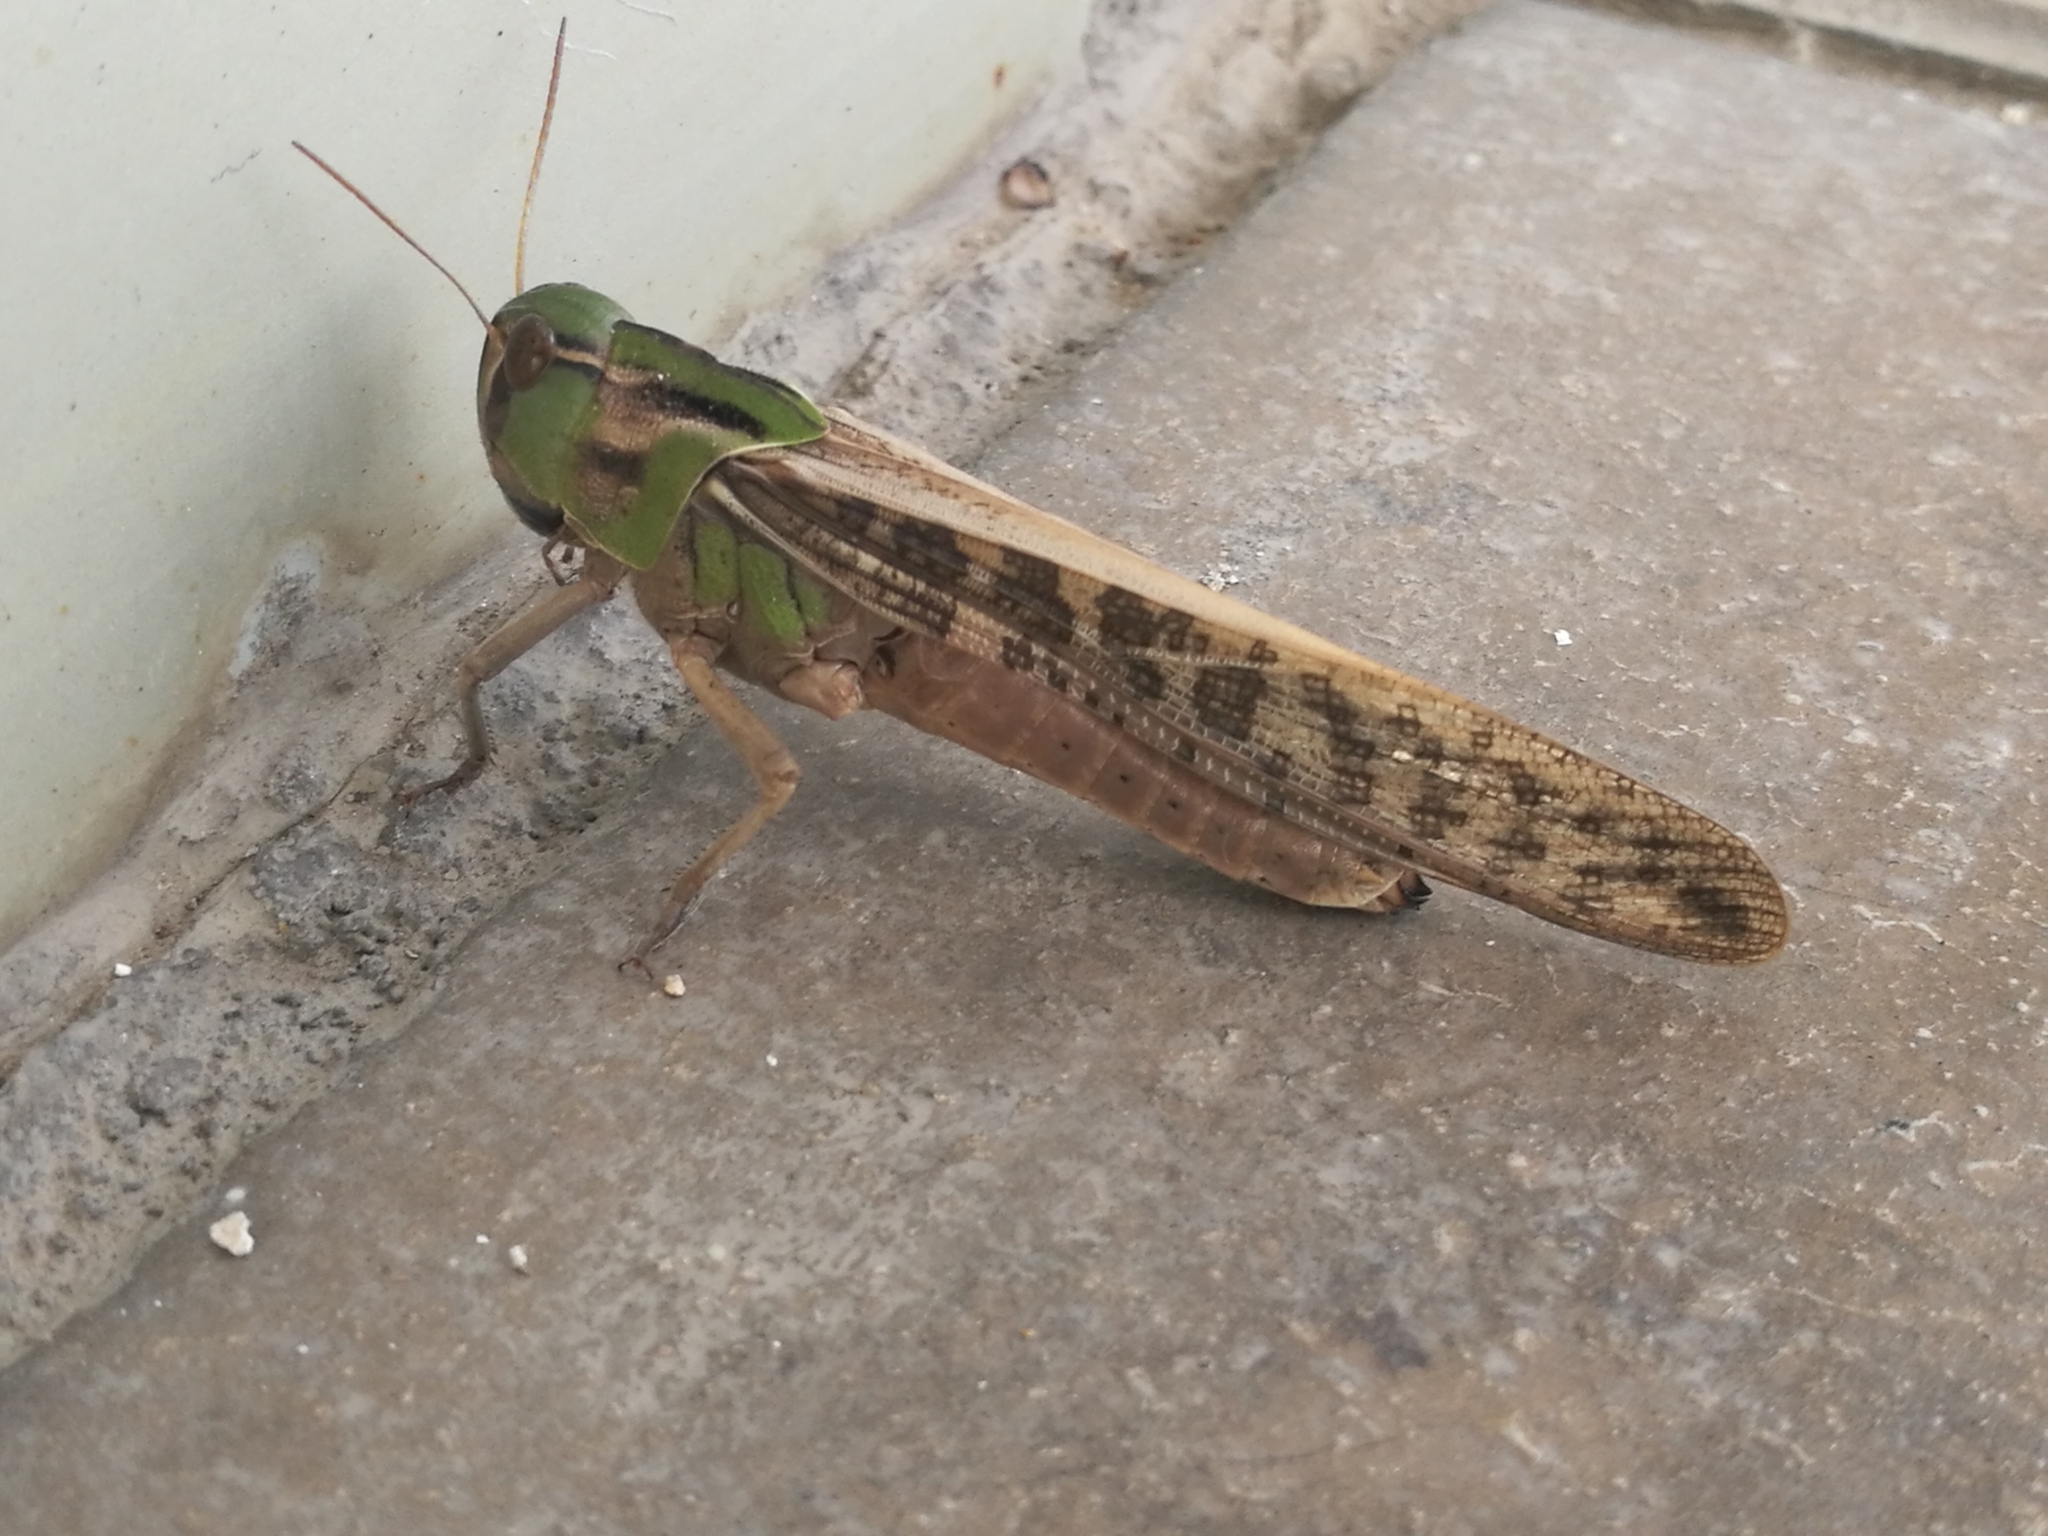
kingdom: Animalia
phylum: Arthropoda
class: Insecta
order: Orthoptera
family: Acrididae
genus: Locusta
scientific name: Locusta migratoria
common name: Migratory locust
